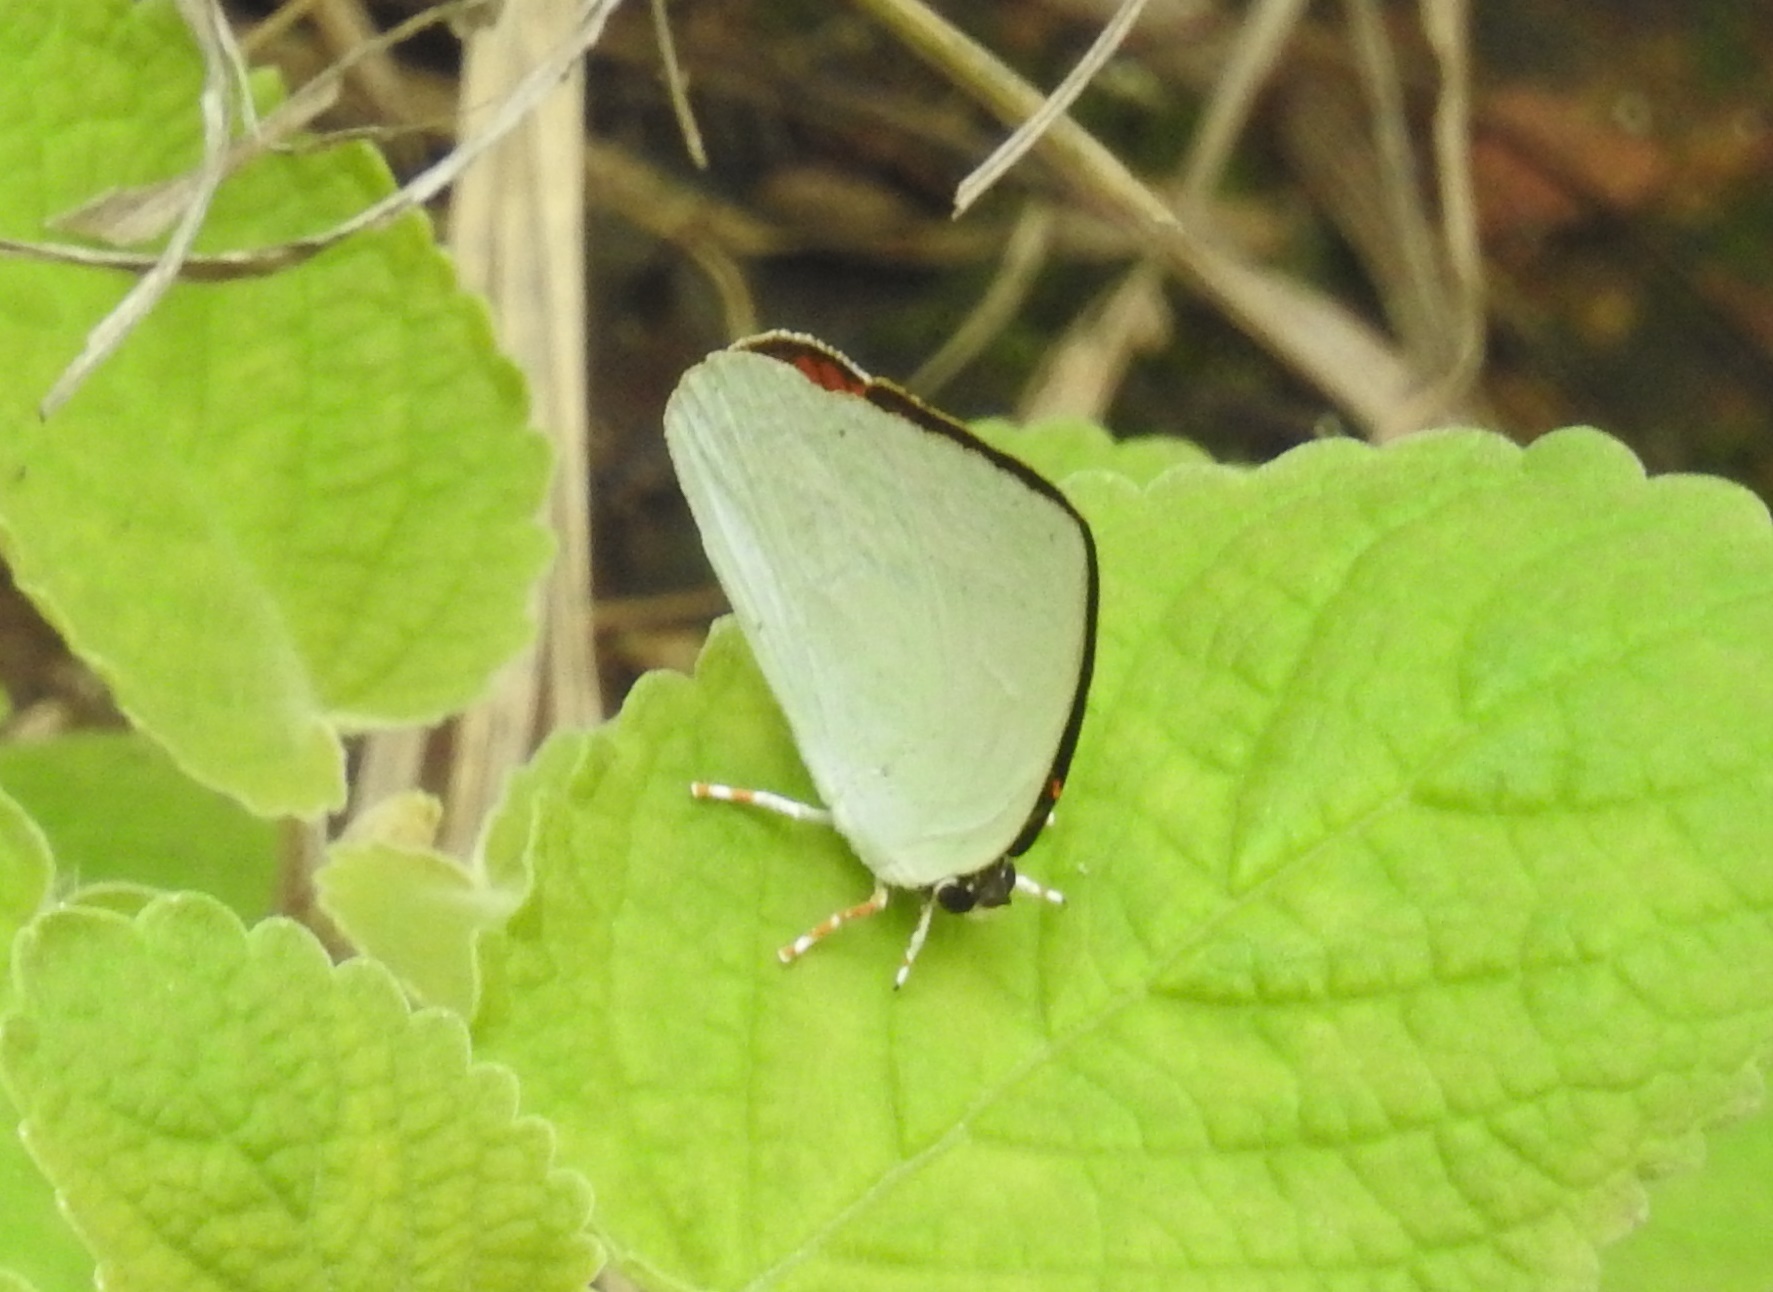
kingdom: Animalia
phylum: Arthropoda
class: Insecta
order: Lepidoptera
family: Lycaenidae
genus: Curetis
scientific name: Curetis thetis
